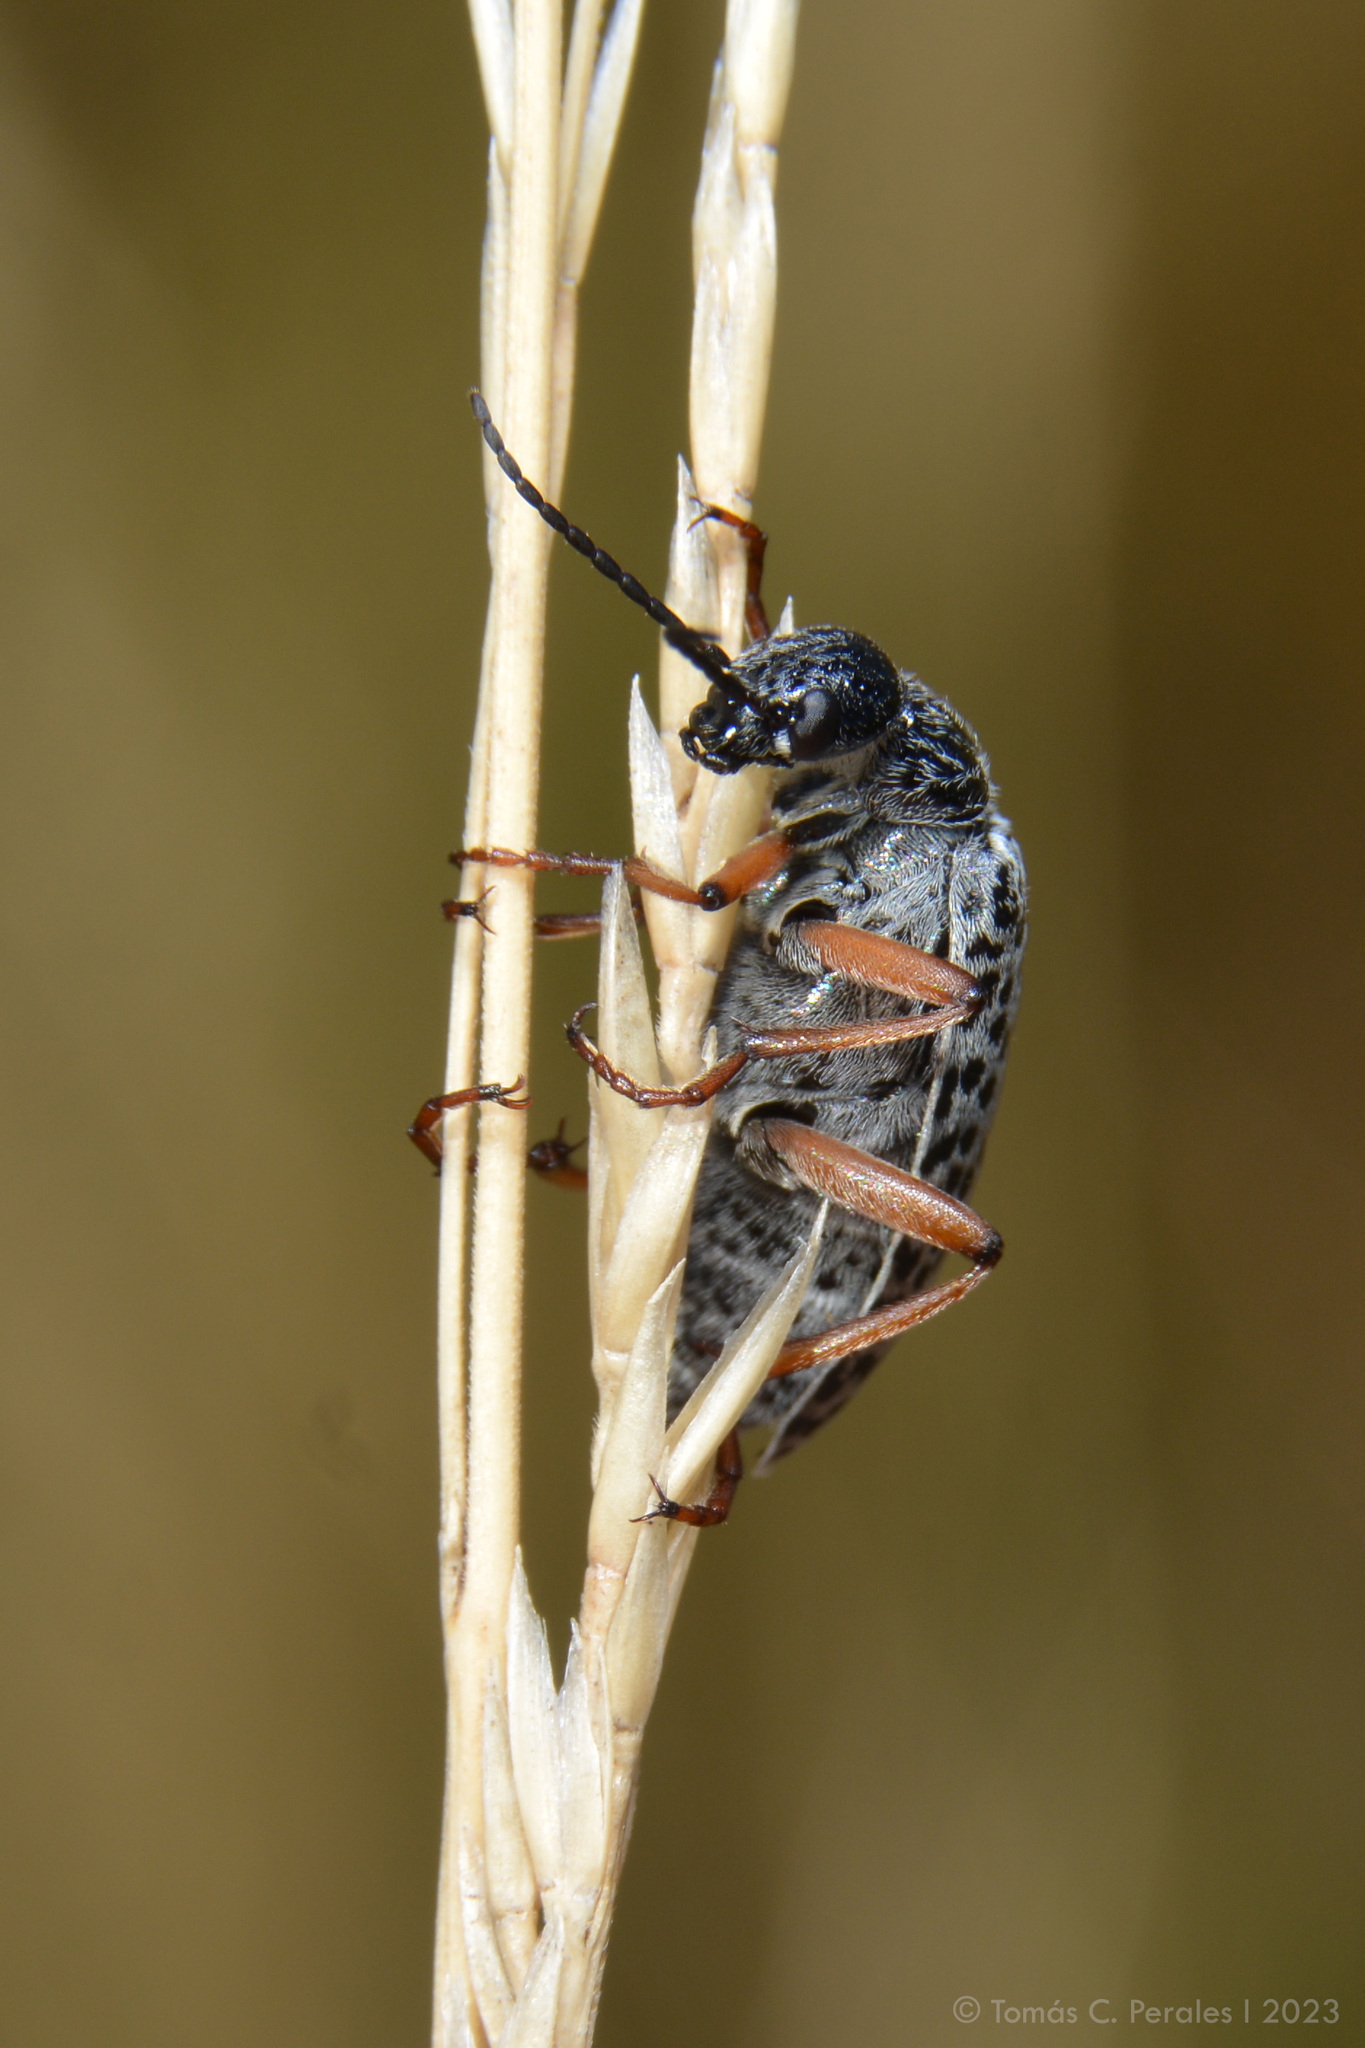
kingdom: Animalia
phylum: Arthropoda
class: Insecta
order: Coleoptera
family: Meloidae
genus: Epicauta
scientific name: Epicauta
